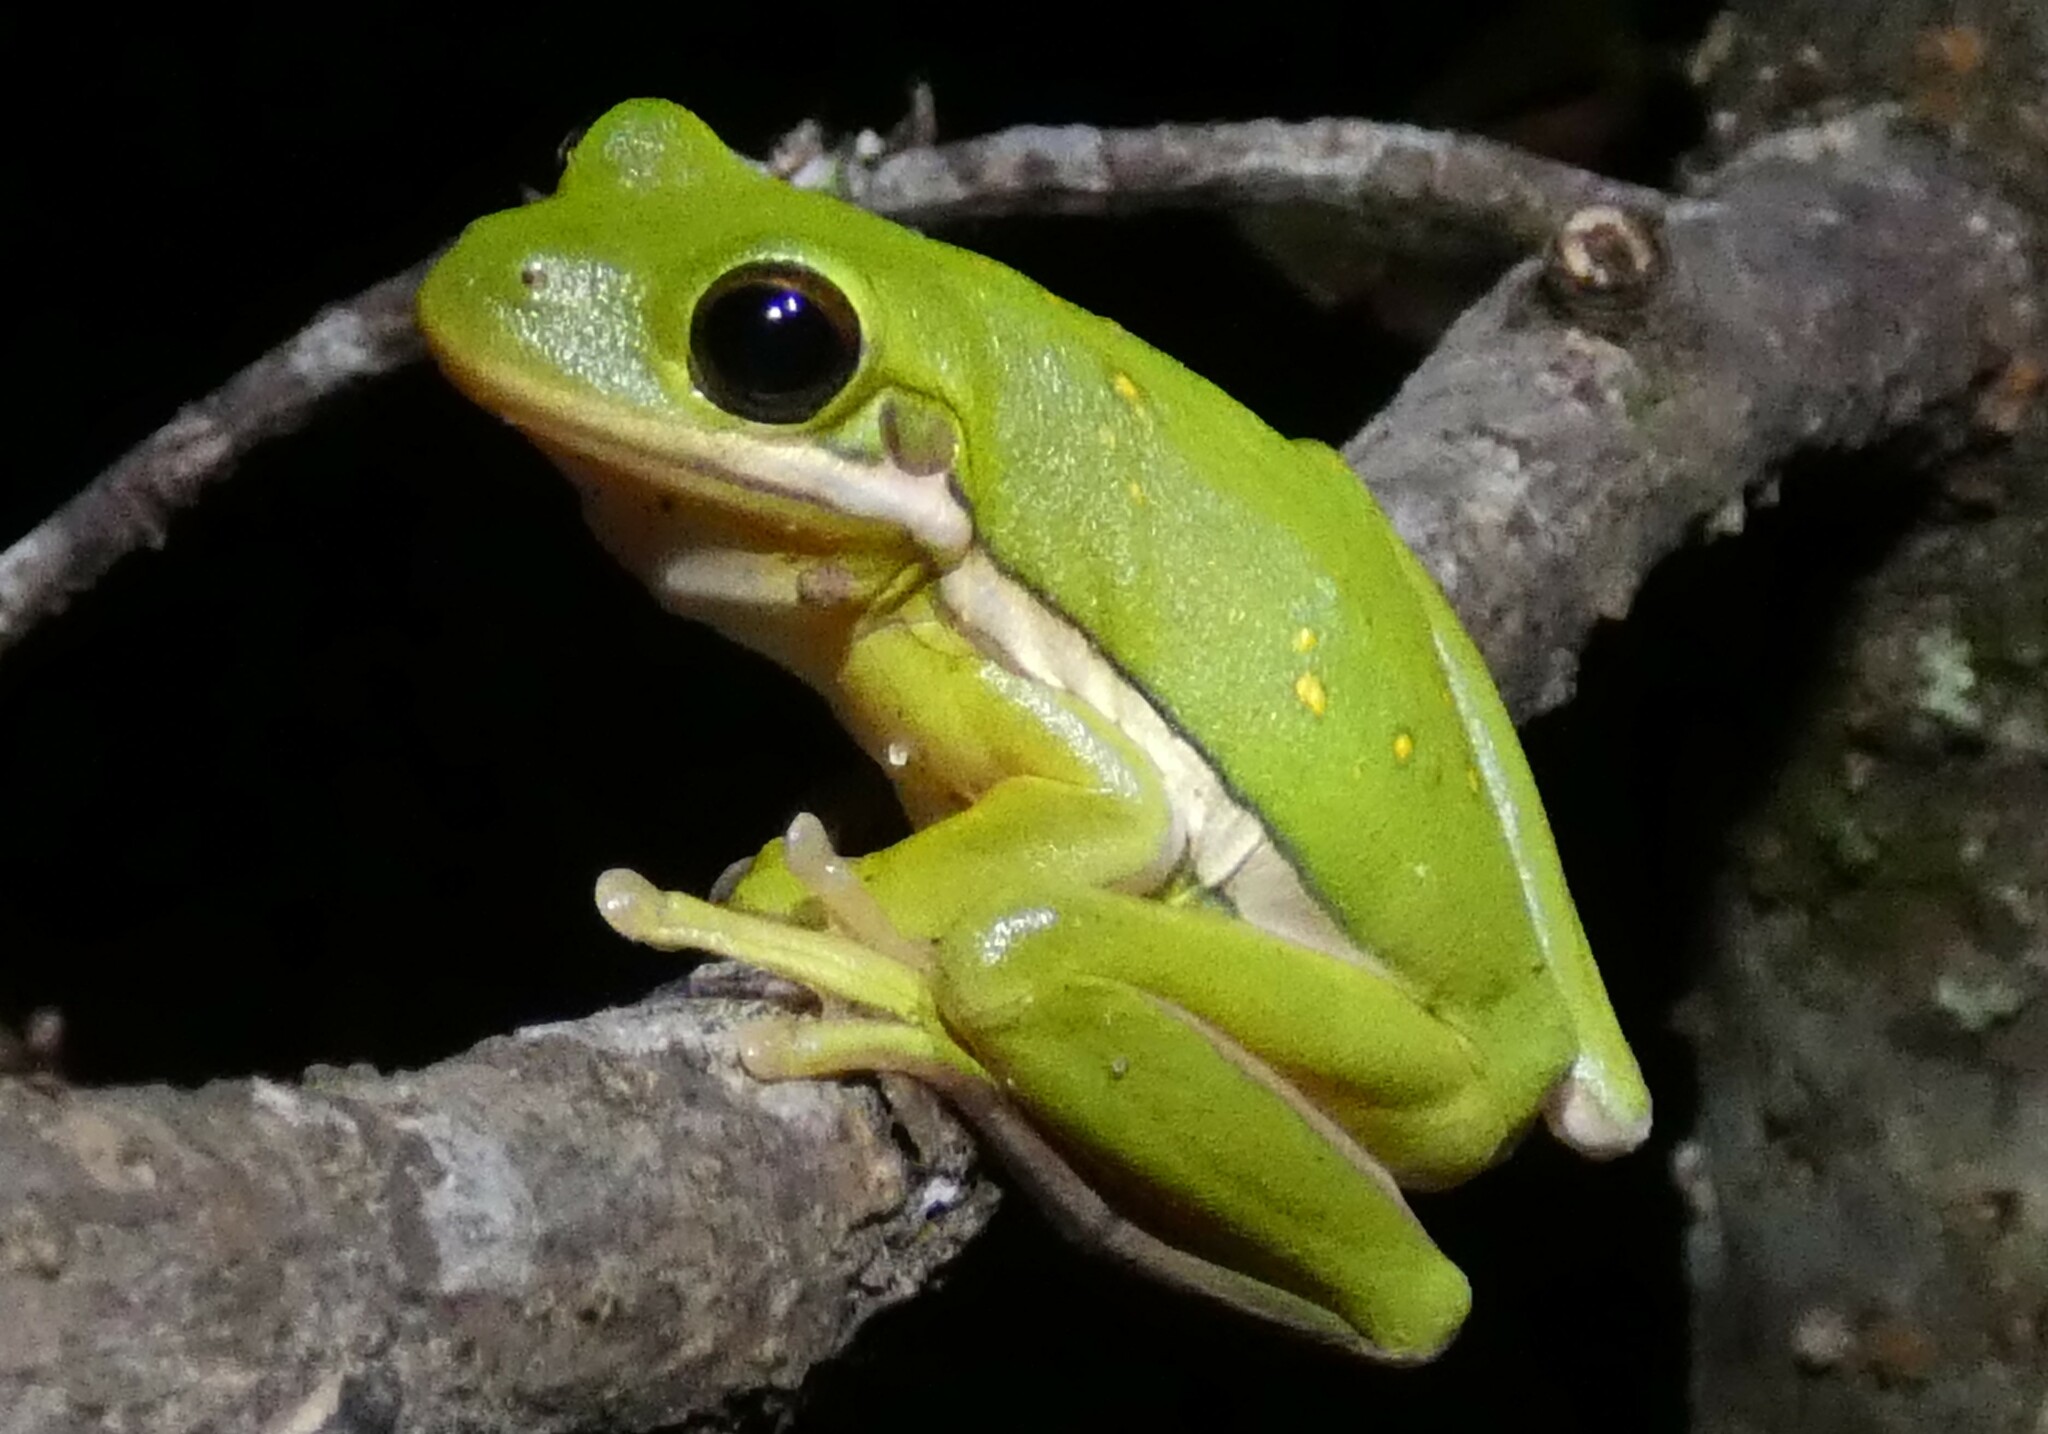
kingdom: Animalia
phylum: Chordata
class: Amphibia
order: Anura
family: Hylidae
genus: Dryophytes
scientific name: Dryophytes cinereus
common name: Green treefrog
